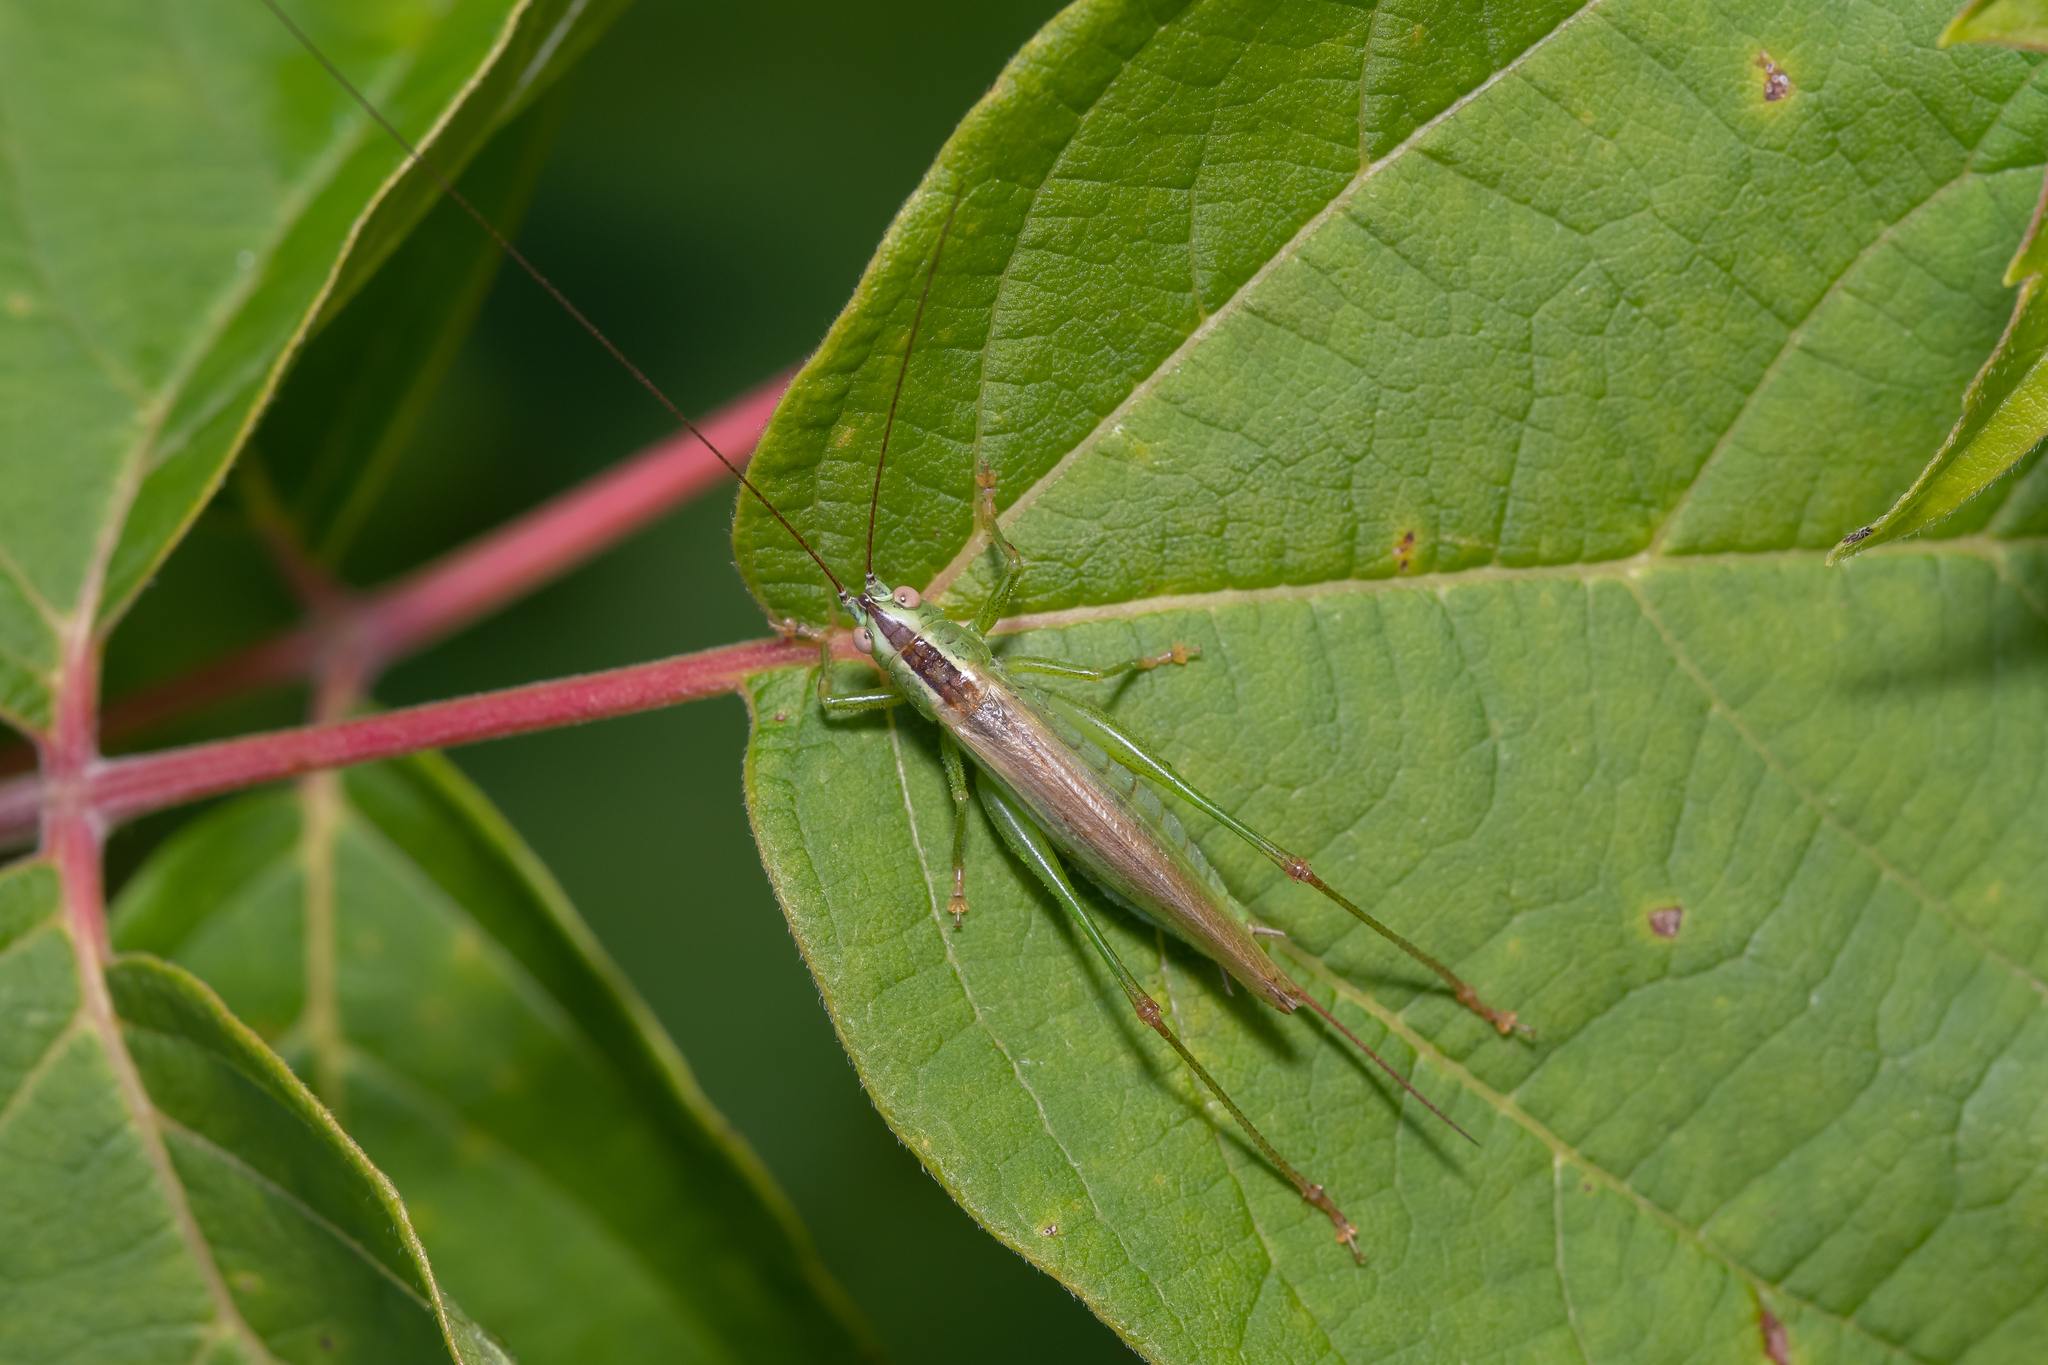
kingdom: Animalia
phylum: Arthropoda
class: Insecta
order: Orthoptera
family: Tettigoniidae
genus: Conocephalus
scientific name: Conocephalus fuscus
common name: Long-winged conehead
